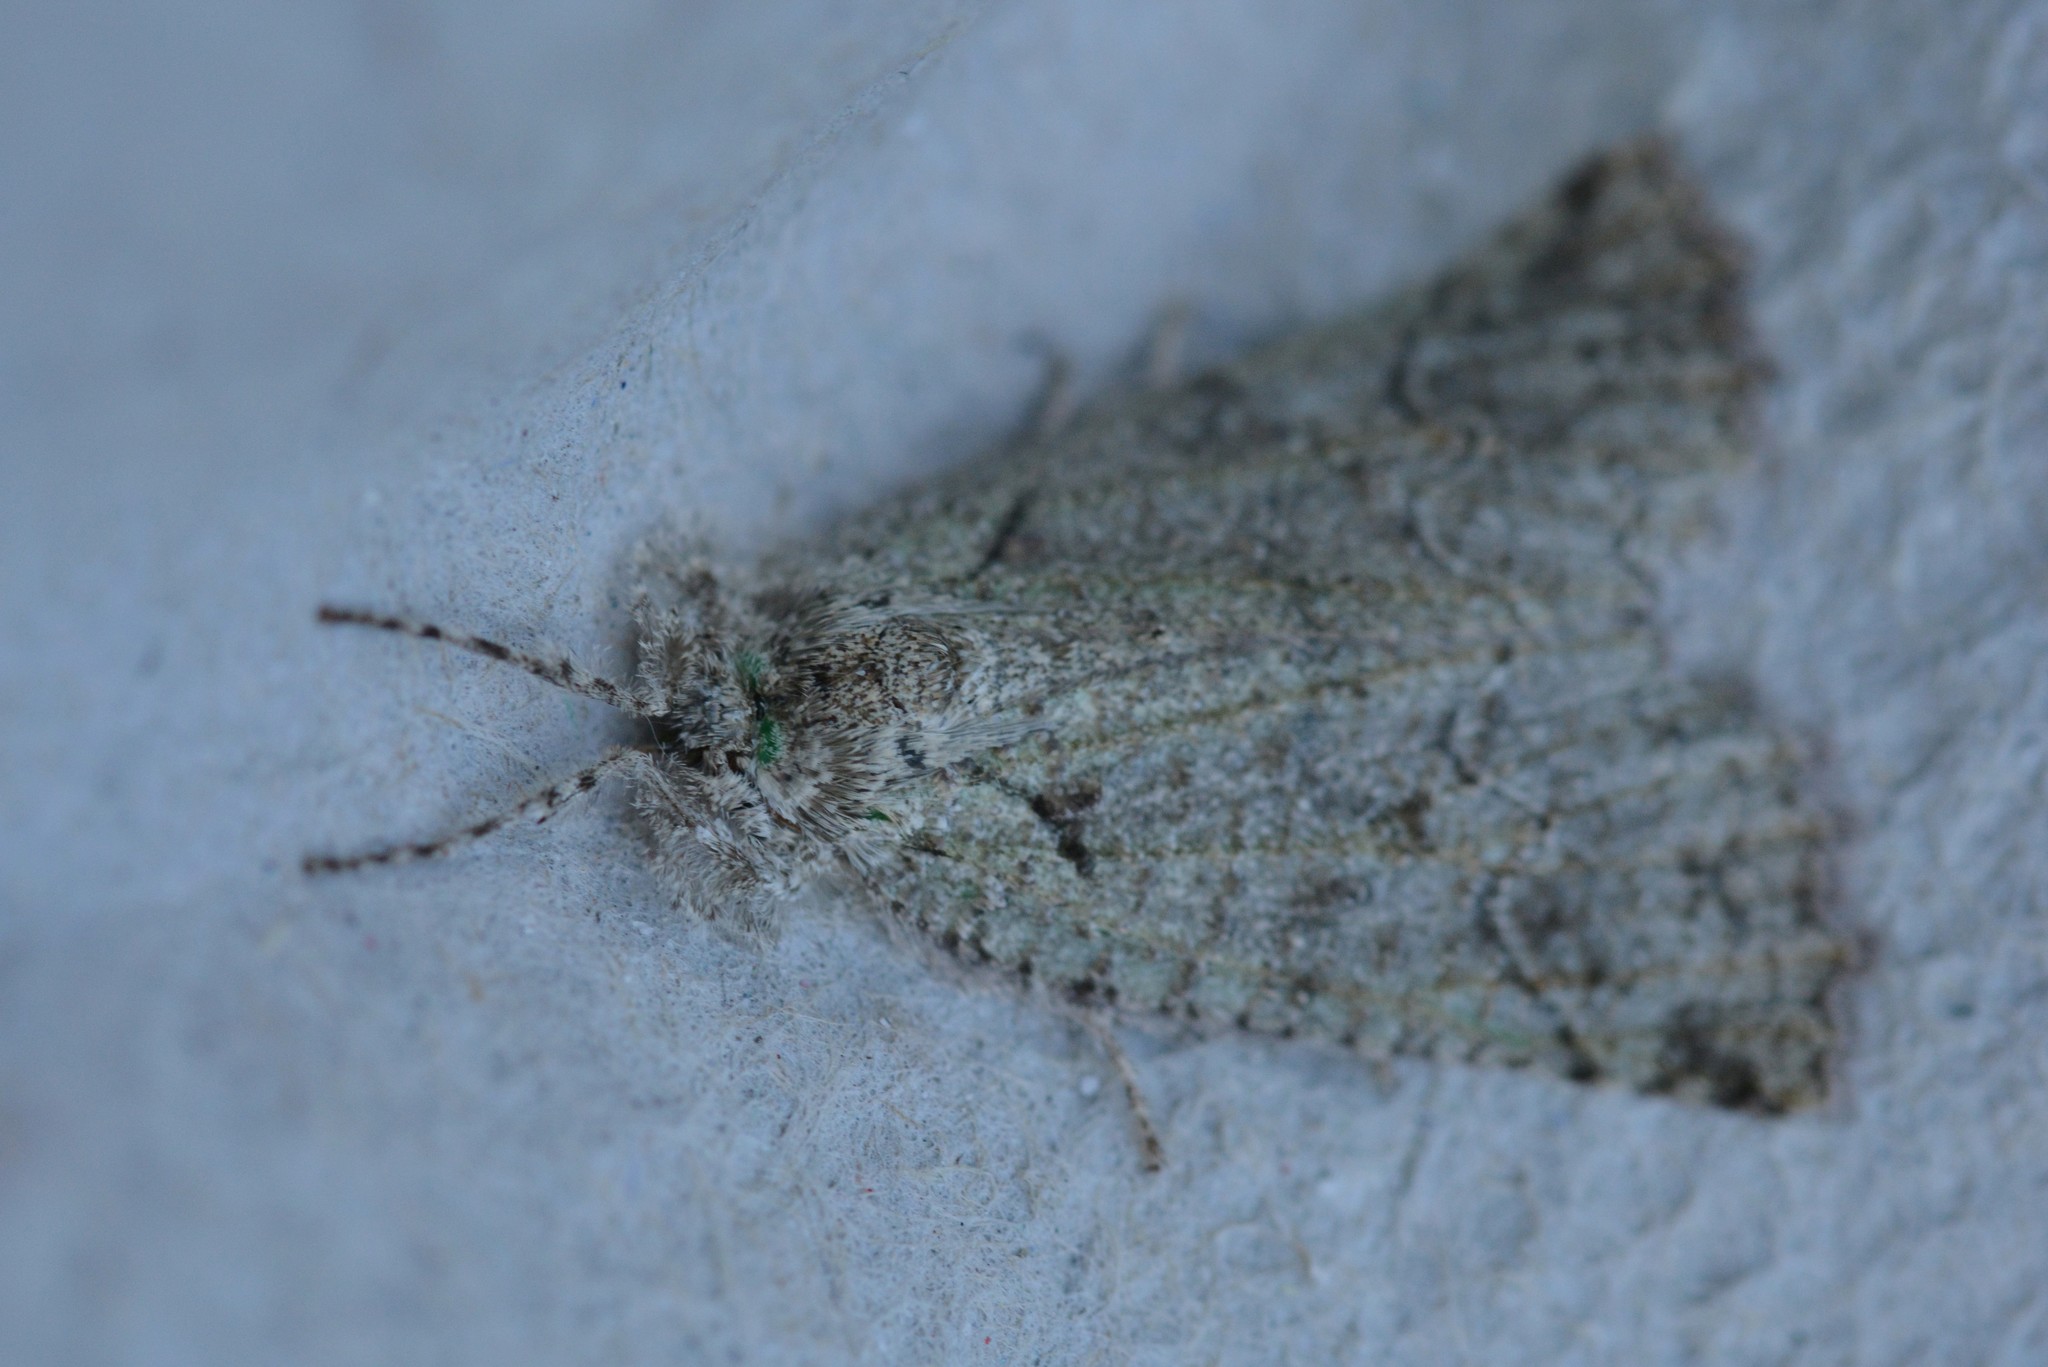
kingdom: Animalia
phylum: Arthropoda
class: Insecta
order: Lepidoptera
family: Geometridae
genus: Declana
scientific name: Declana floccosa
